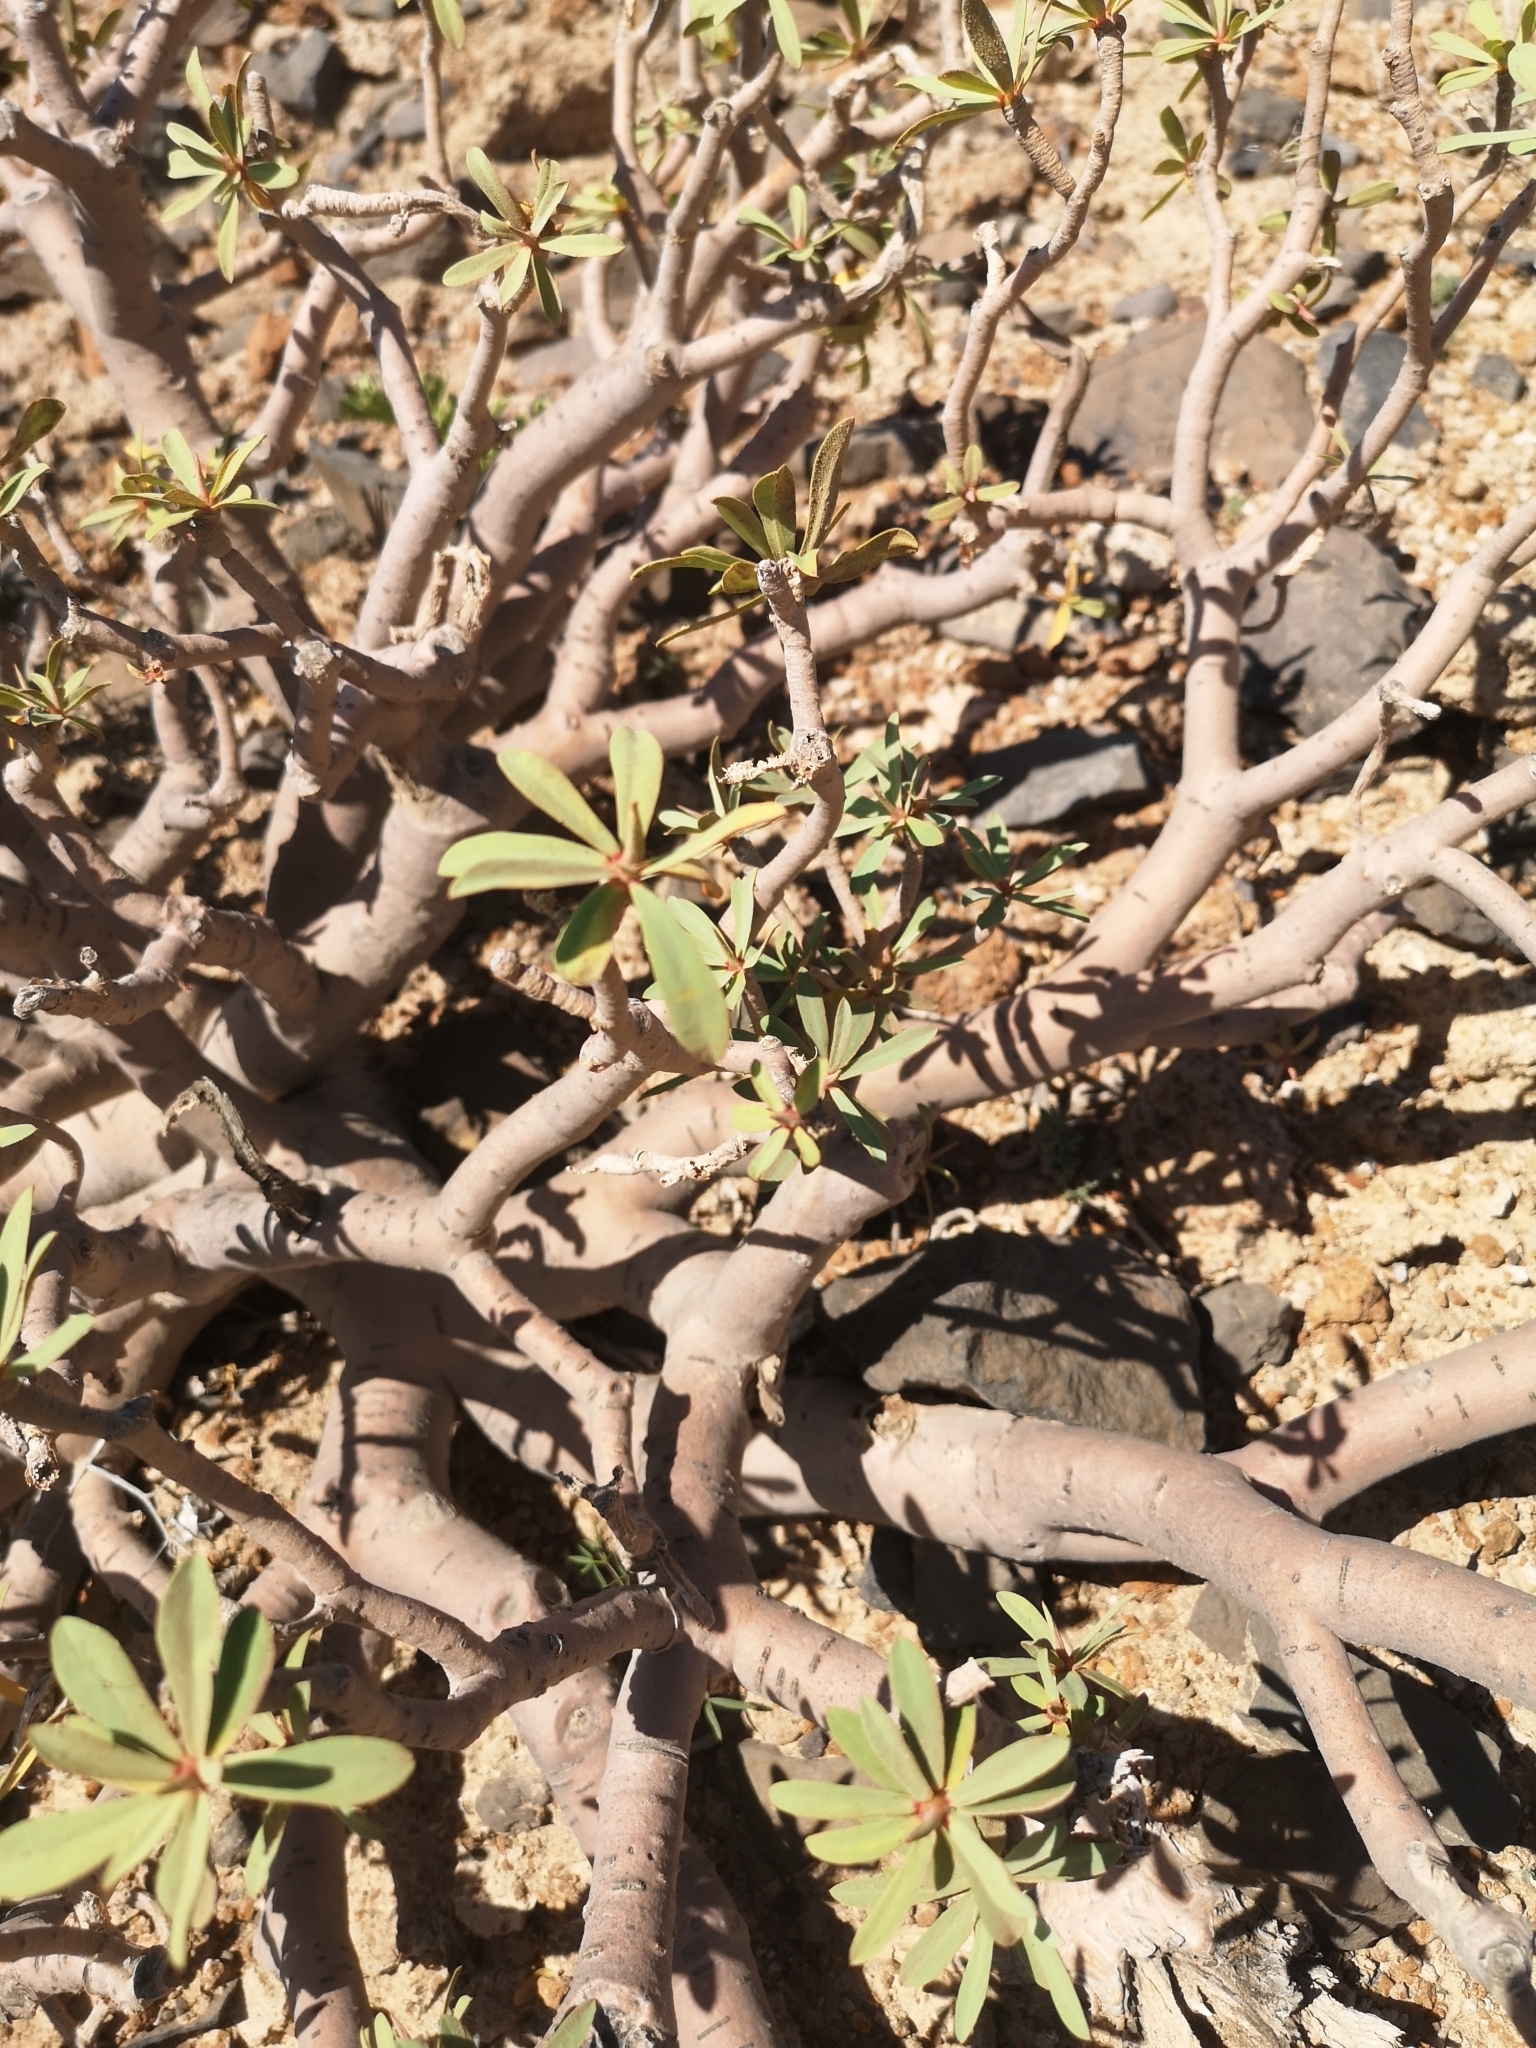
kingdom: Plantae
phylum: Tracheophyta
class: Magnoliopsida
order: Malpighiales
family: Euphorbiaceae
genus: Euphorbia
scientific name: Euphorbia balsamifera
